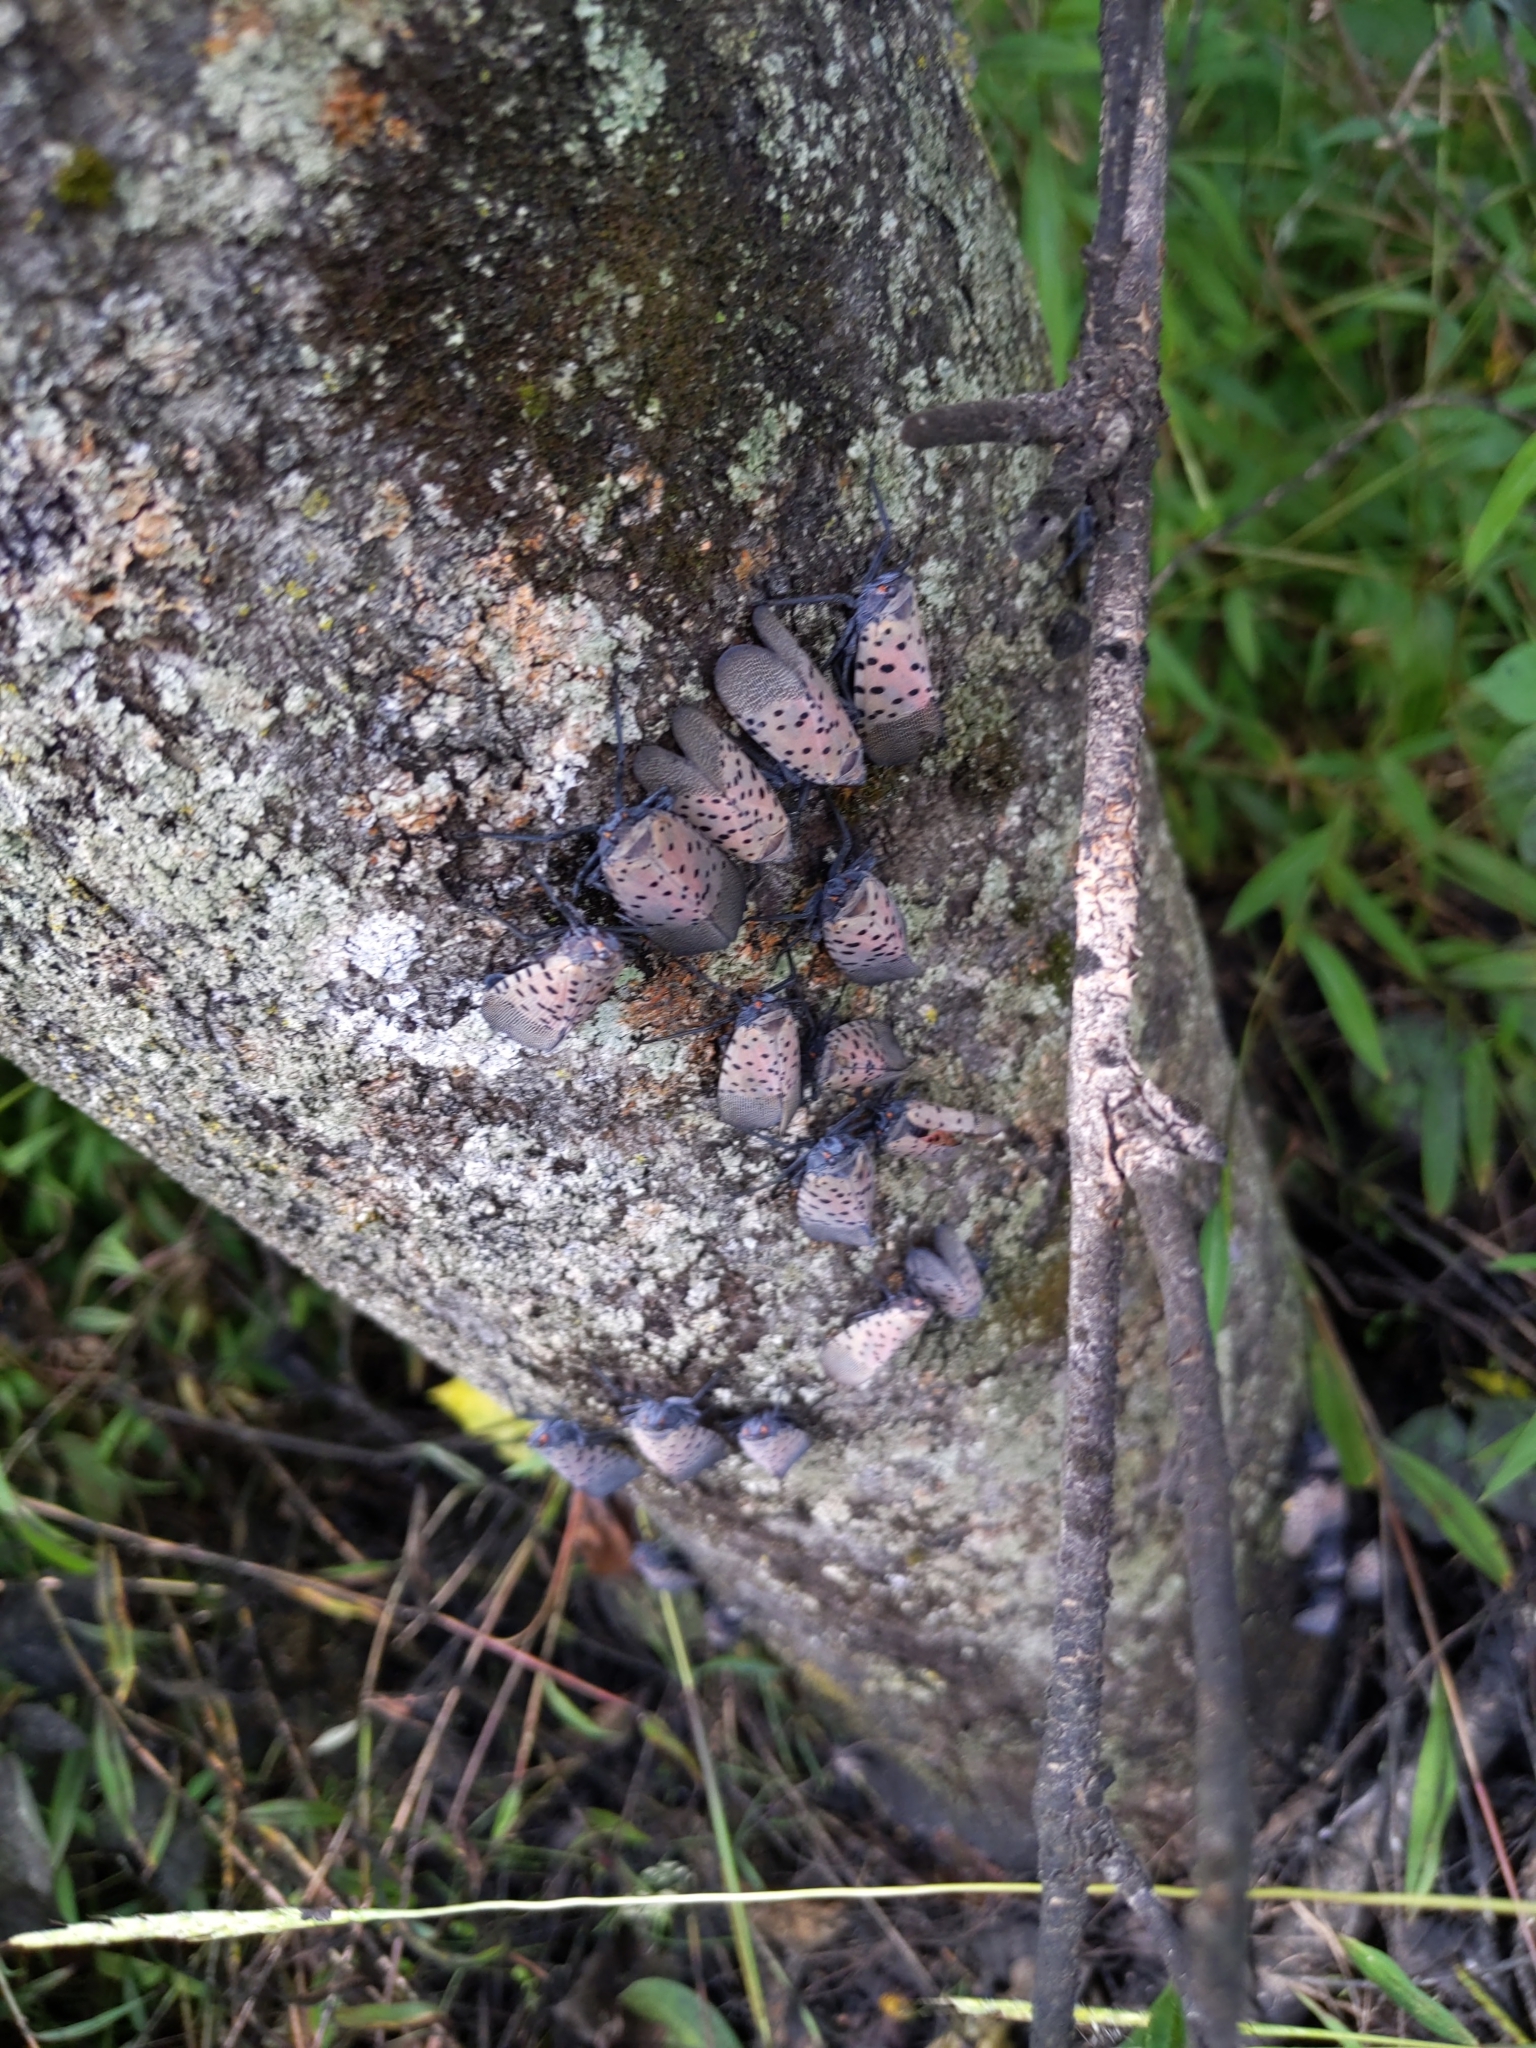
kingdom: Animalia
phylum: Arthropoda
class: Insecta
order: Hemiptera
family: Fulgoridae
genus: Lycorma
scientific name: Lycorma delicatula
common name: Spotted lanternfly
